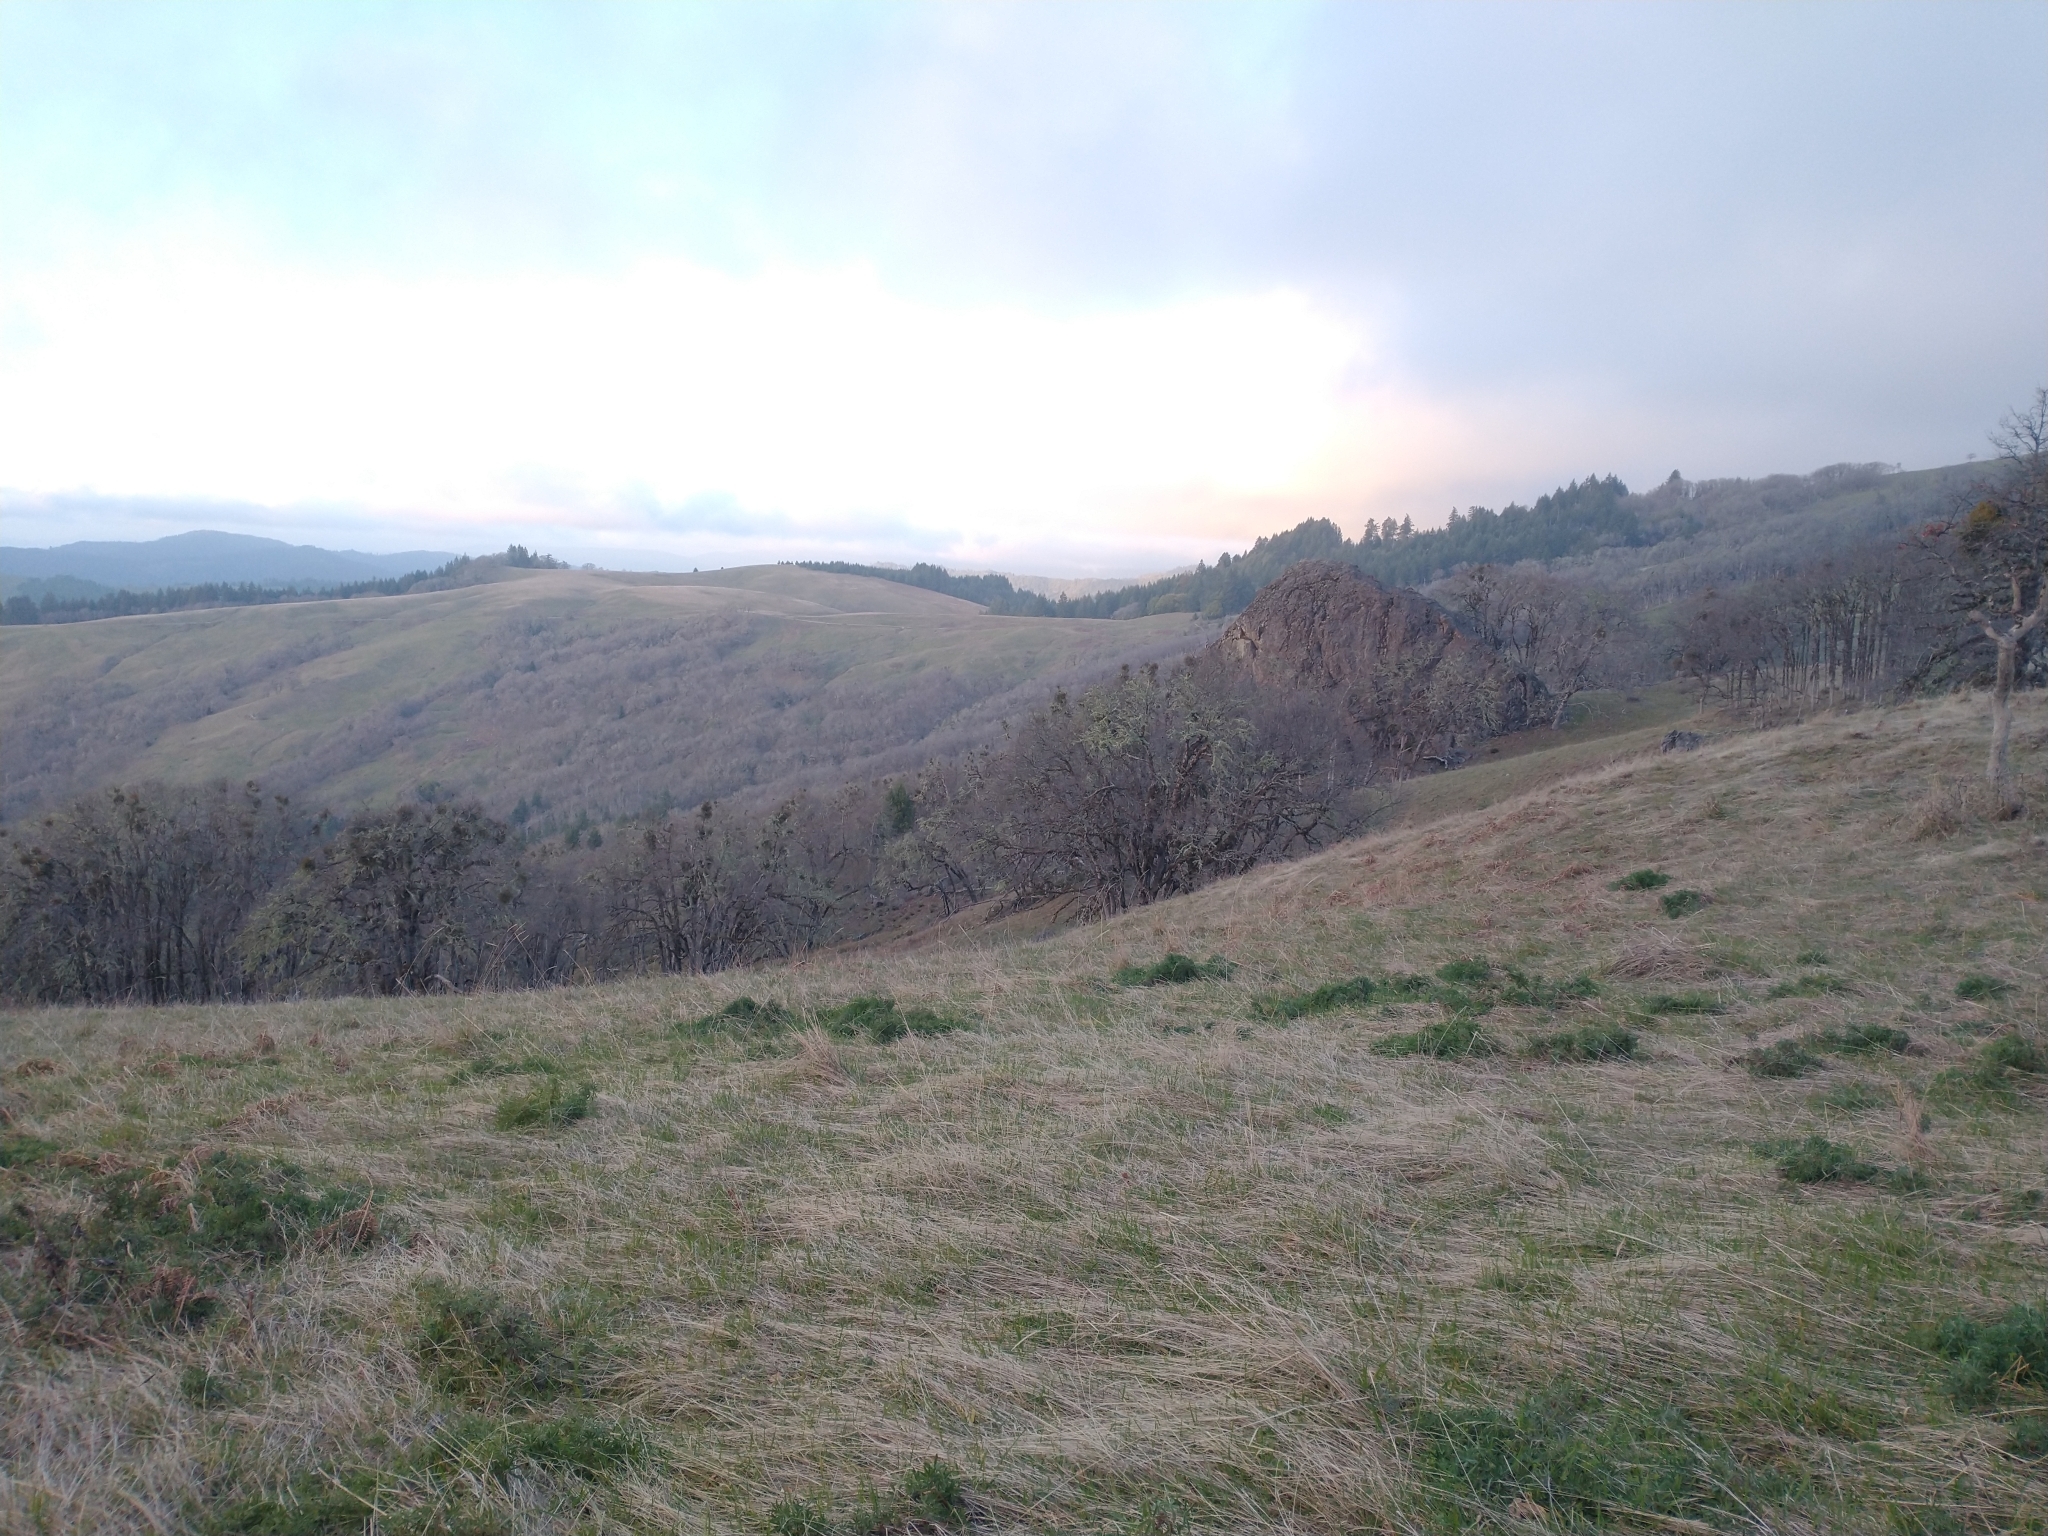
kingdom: Plantae
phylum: Tracheophyta
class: Magnoliopsida
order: Fagales
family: Fagaceae
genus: Quercus
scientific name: Quercus garryana
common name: Garry oak
